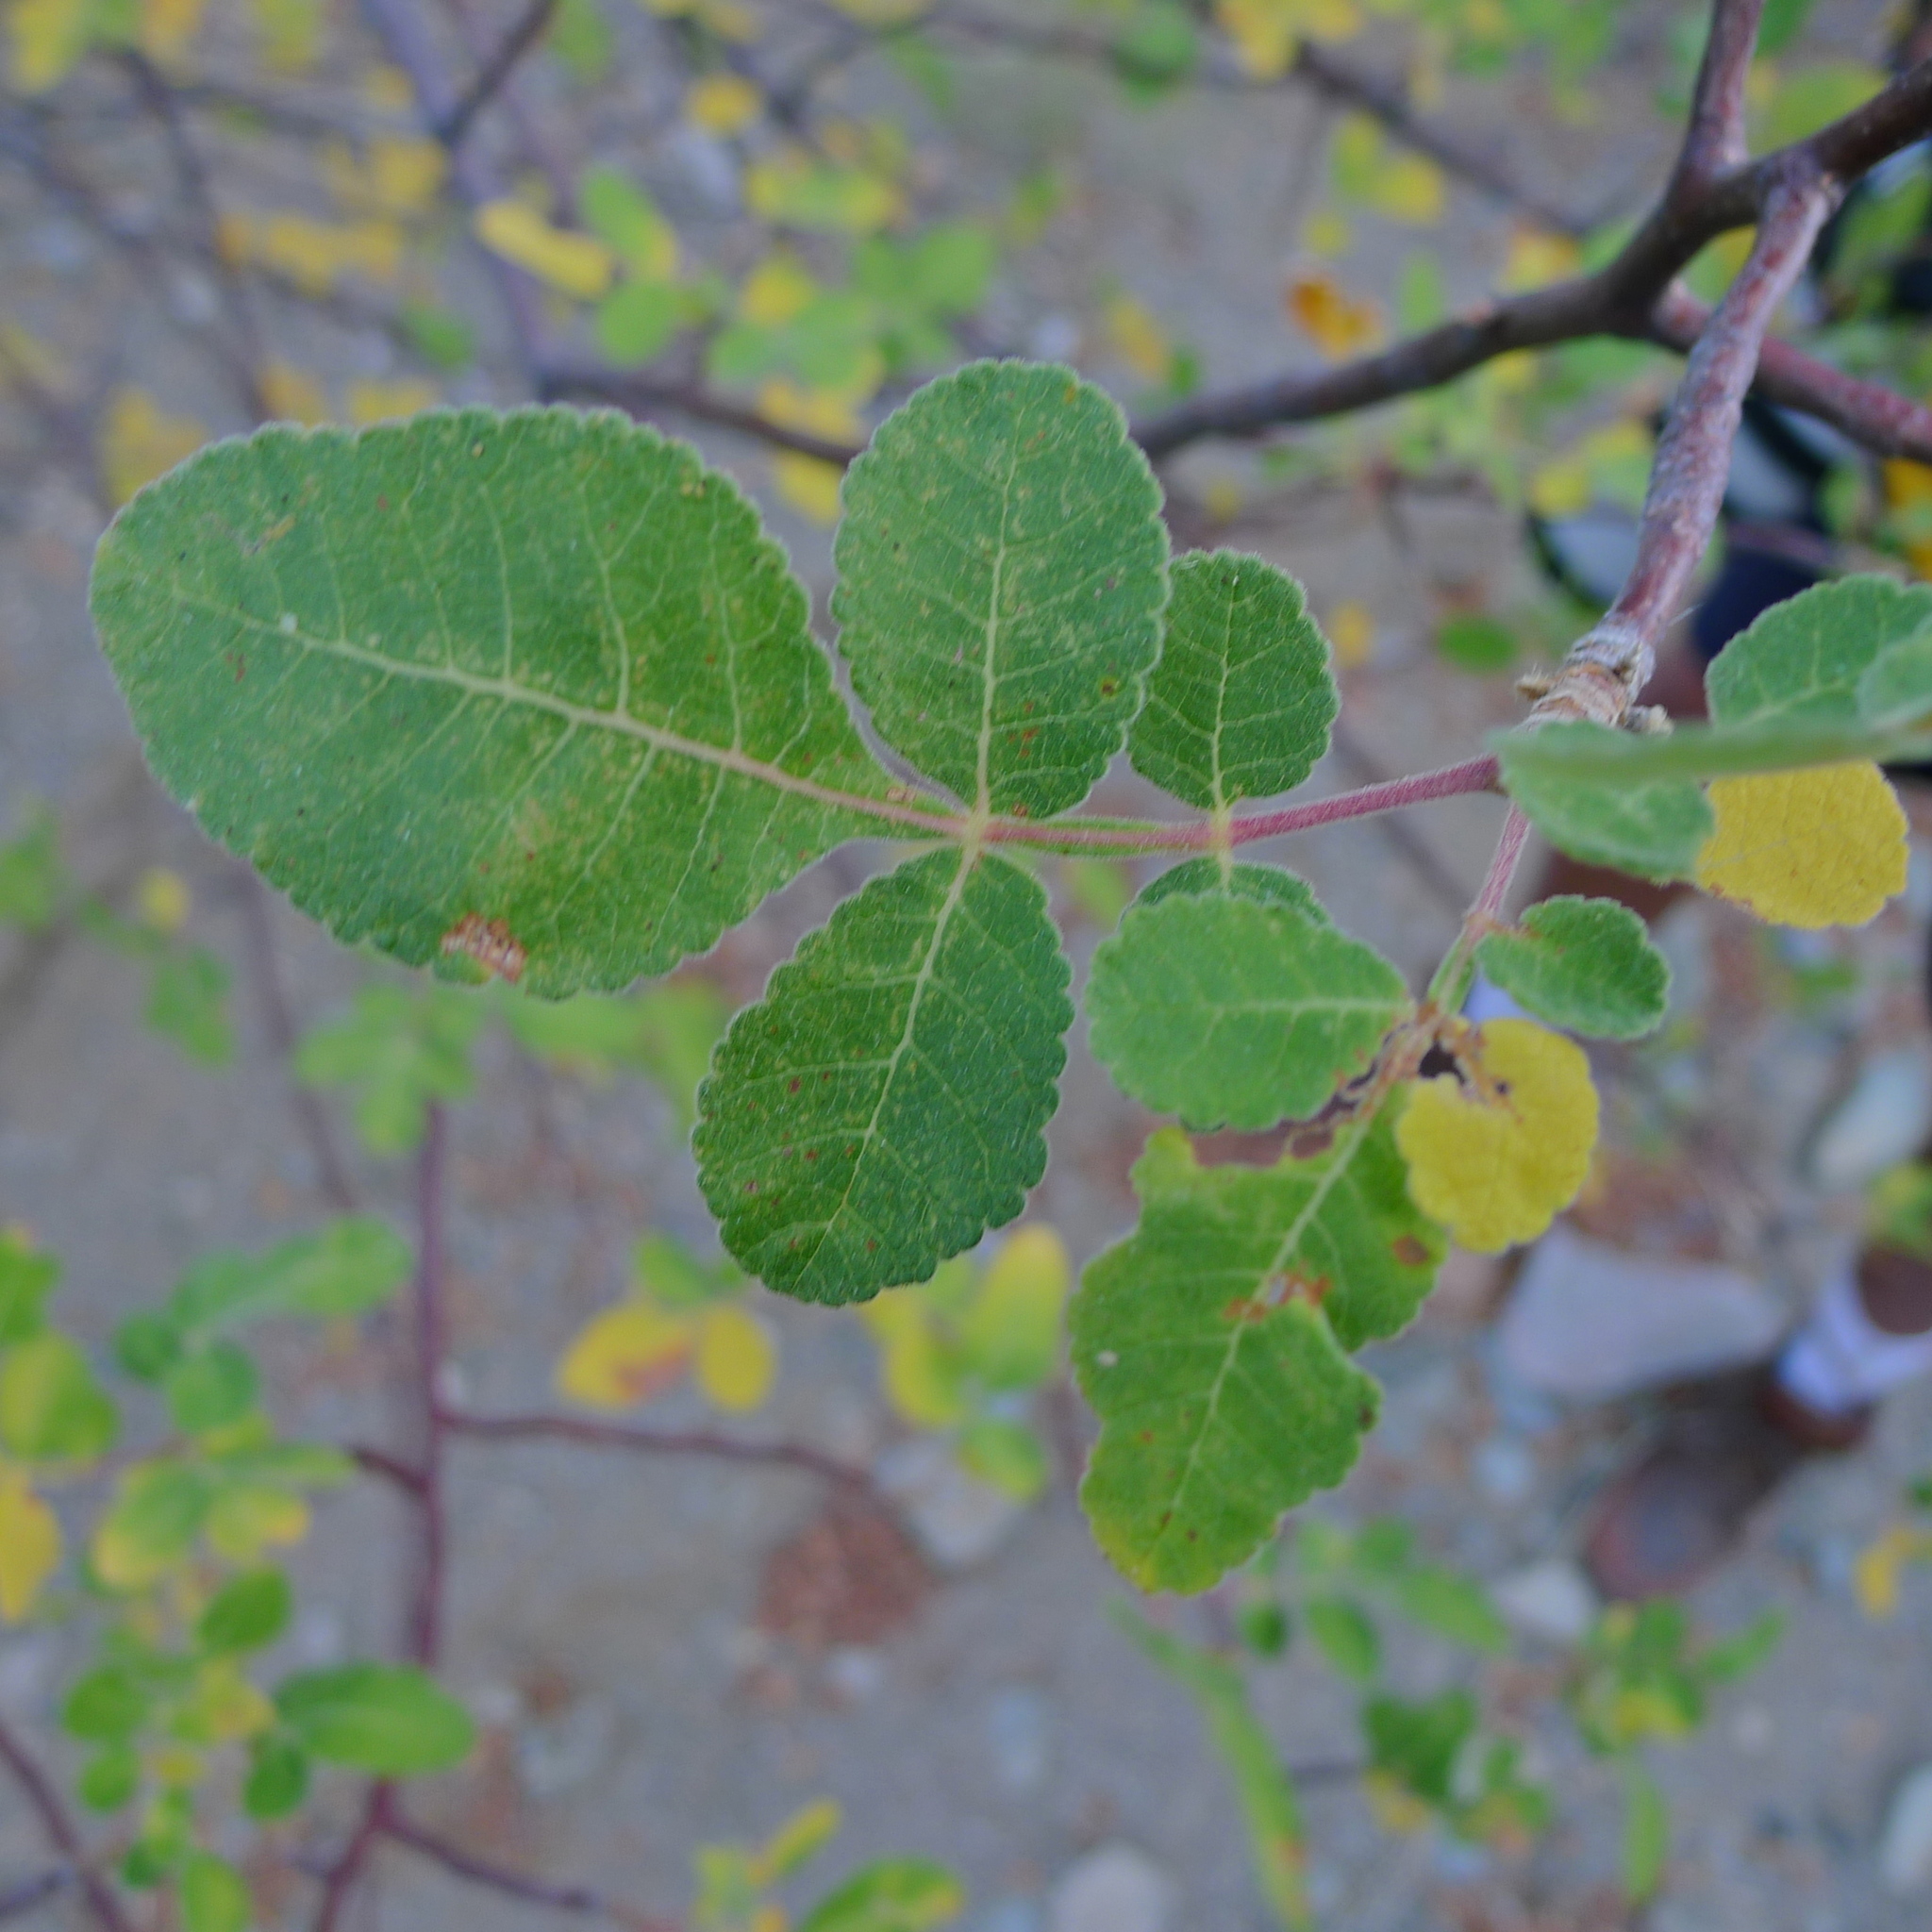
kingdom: Plantae
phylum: Tracheophyta
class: Magnoliopsida
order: Sapindales
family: Burseraceae
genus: Bursera
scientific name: Bursera hindsiana
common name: Red elephant tree
